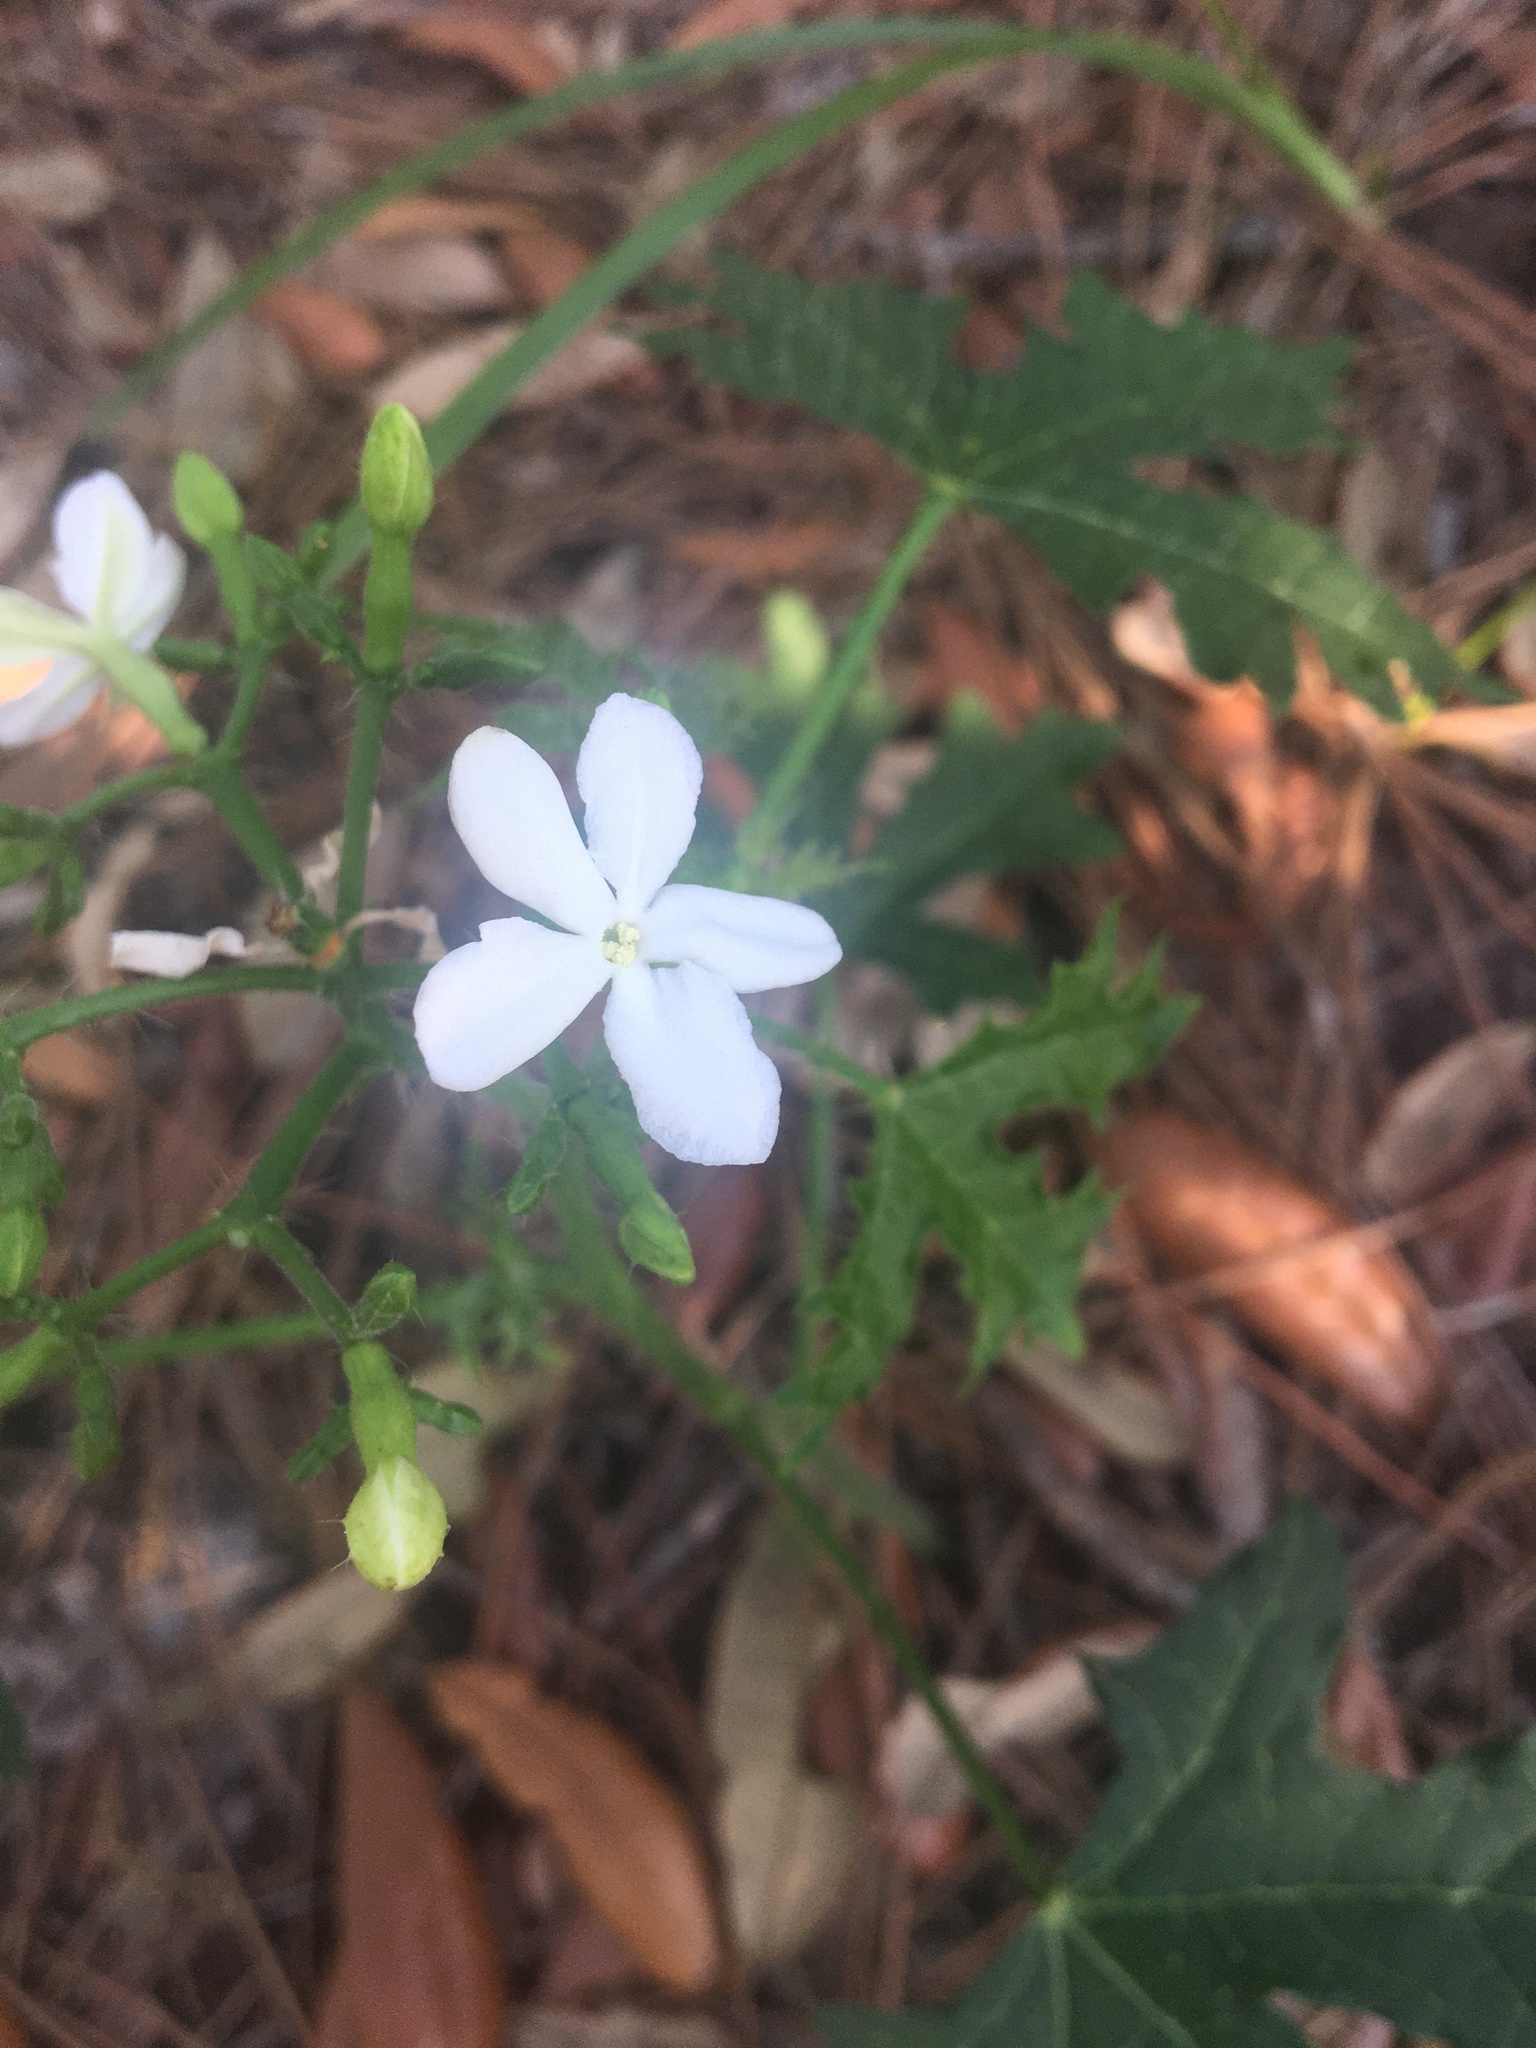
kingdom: Plantae
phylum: Tracheophyta
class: Magnoliopsida
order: Malpighiales
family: Euphorbiaceae
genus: Cnidoscolus
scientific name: Cnidoscolus stimulosus
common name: Bull-nettle
